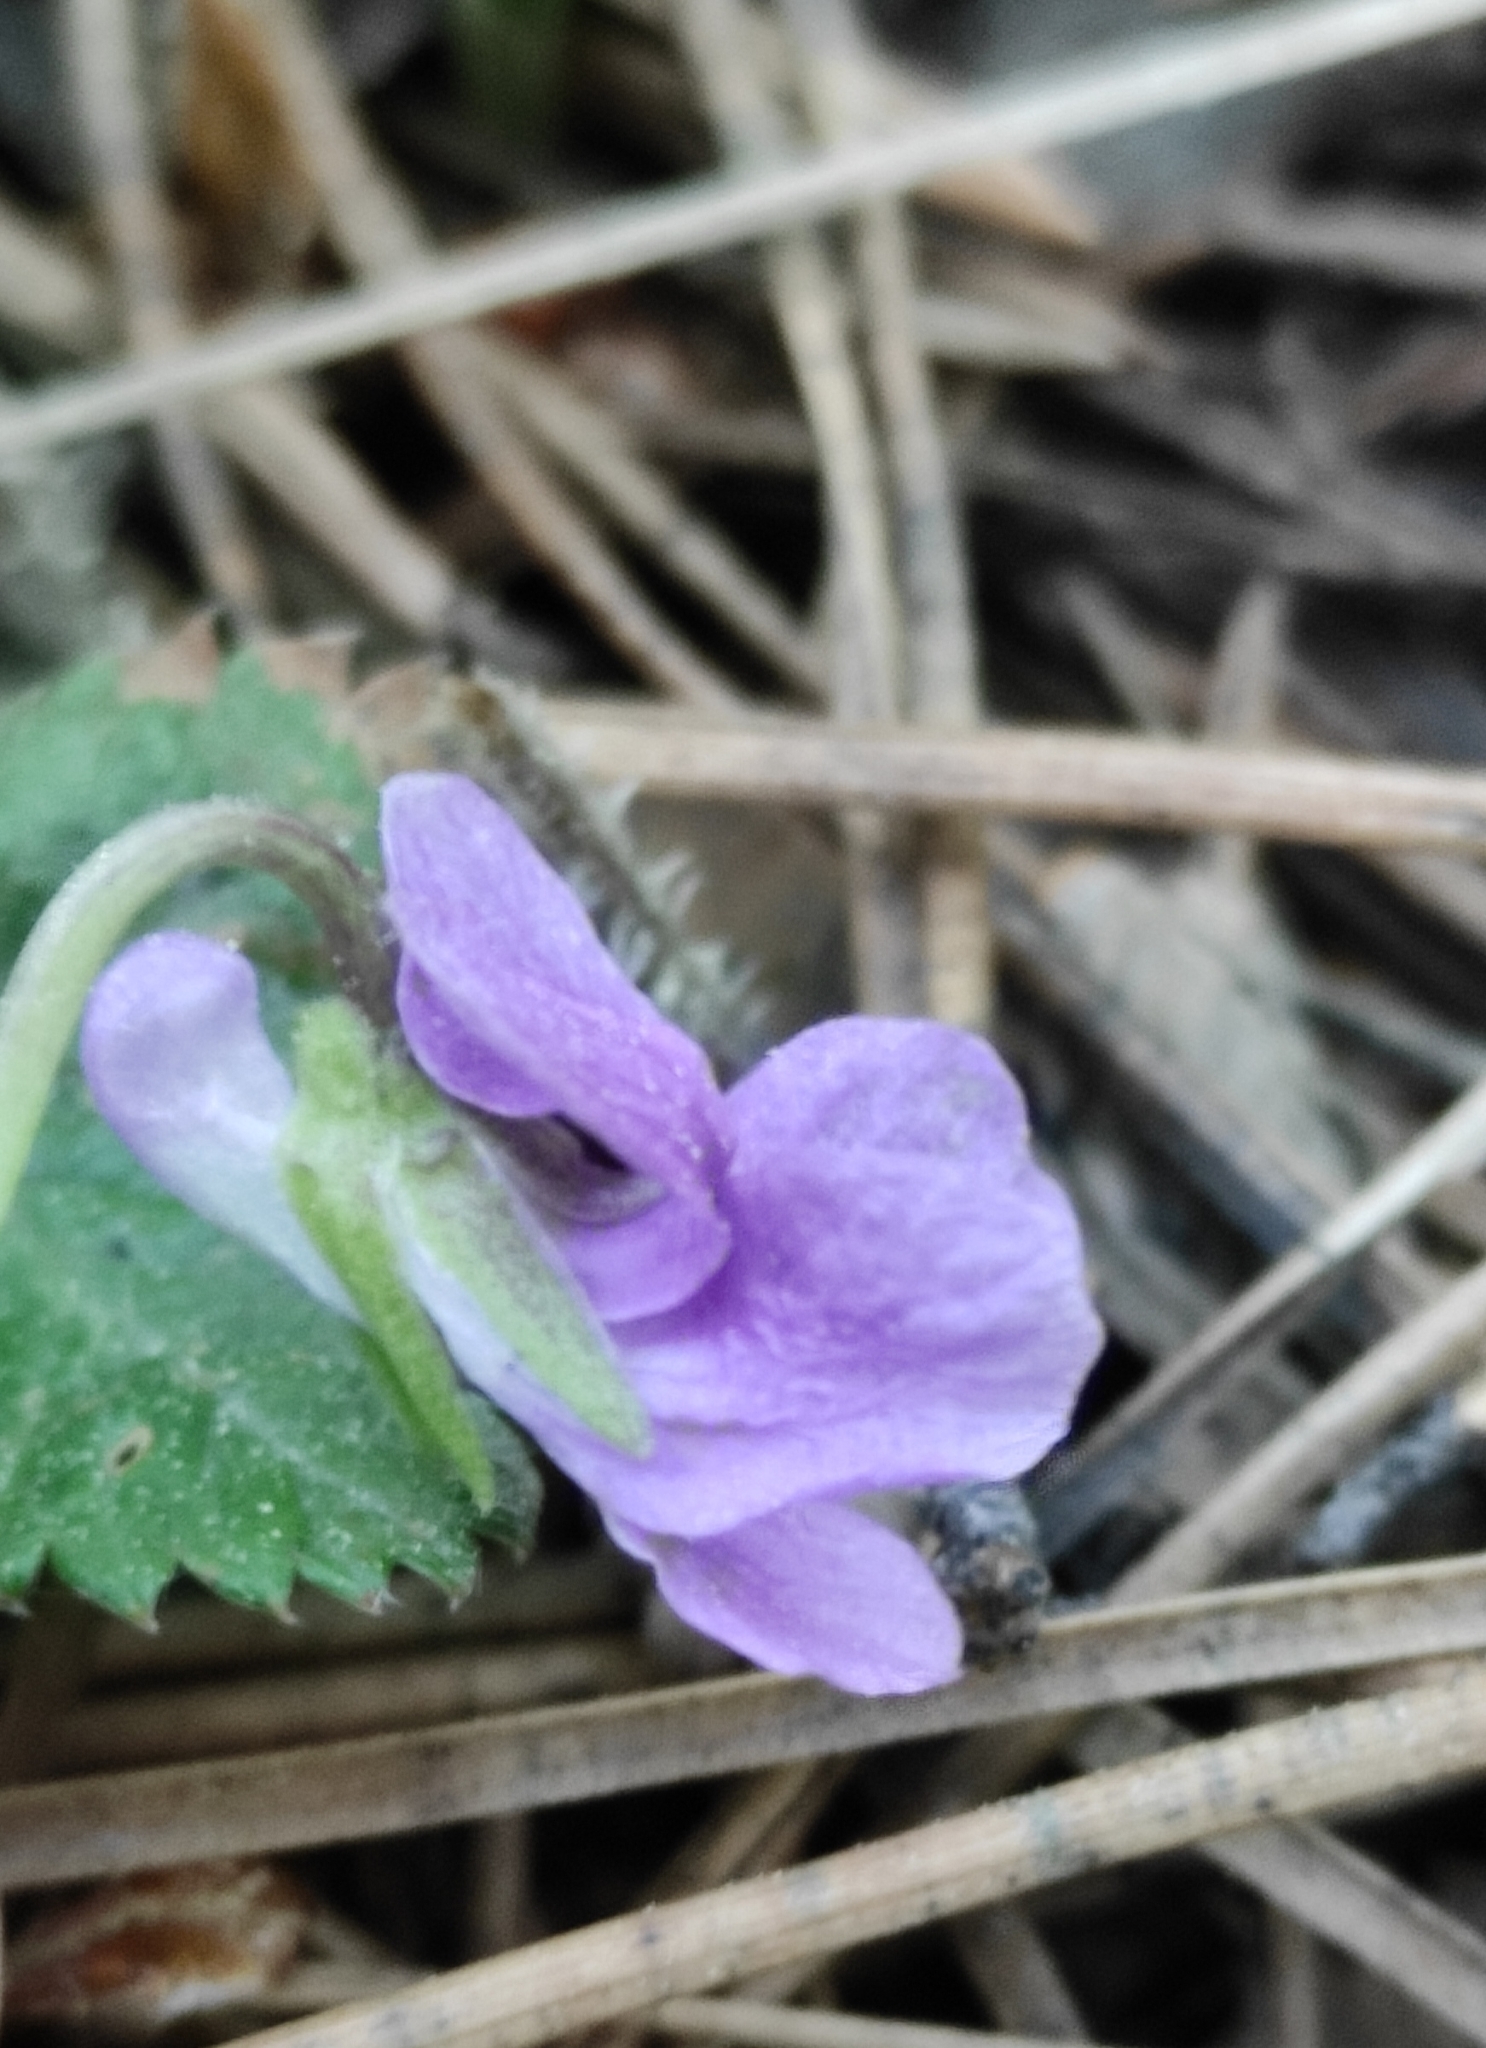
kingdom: Plantae
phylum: Tracheophyta
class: Magnoliopsida
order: Malpighiales
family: Violaceae
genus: Viola
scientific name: Viola gmeliniana
